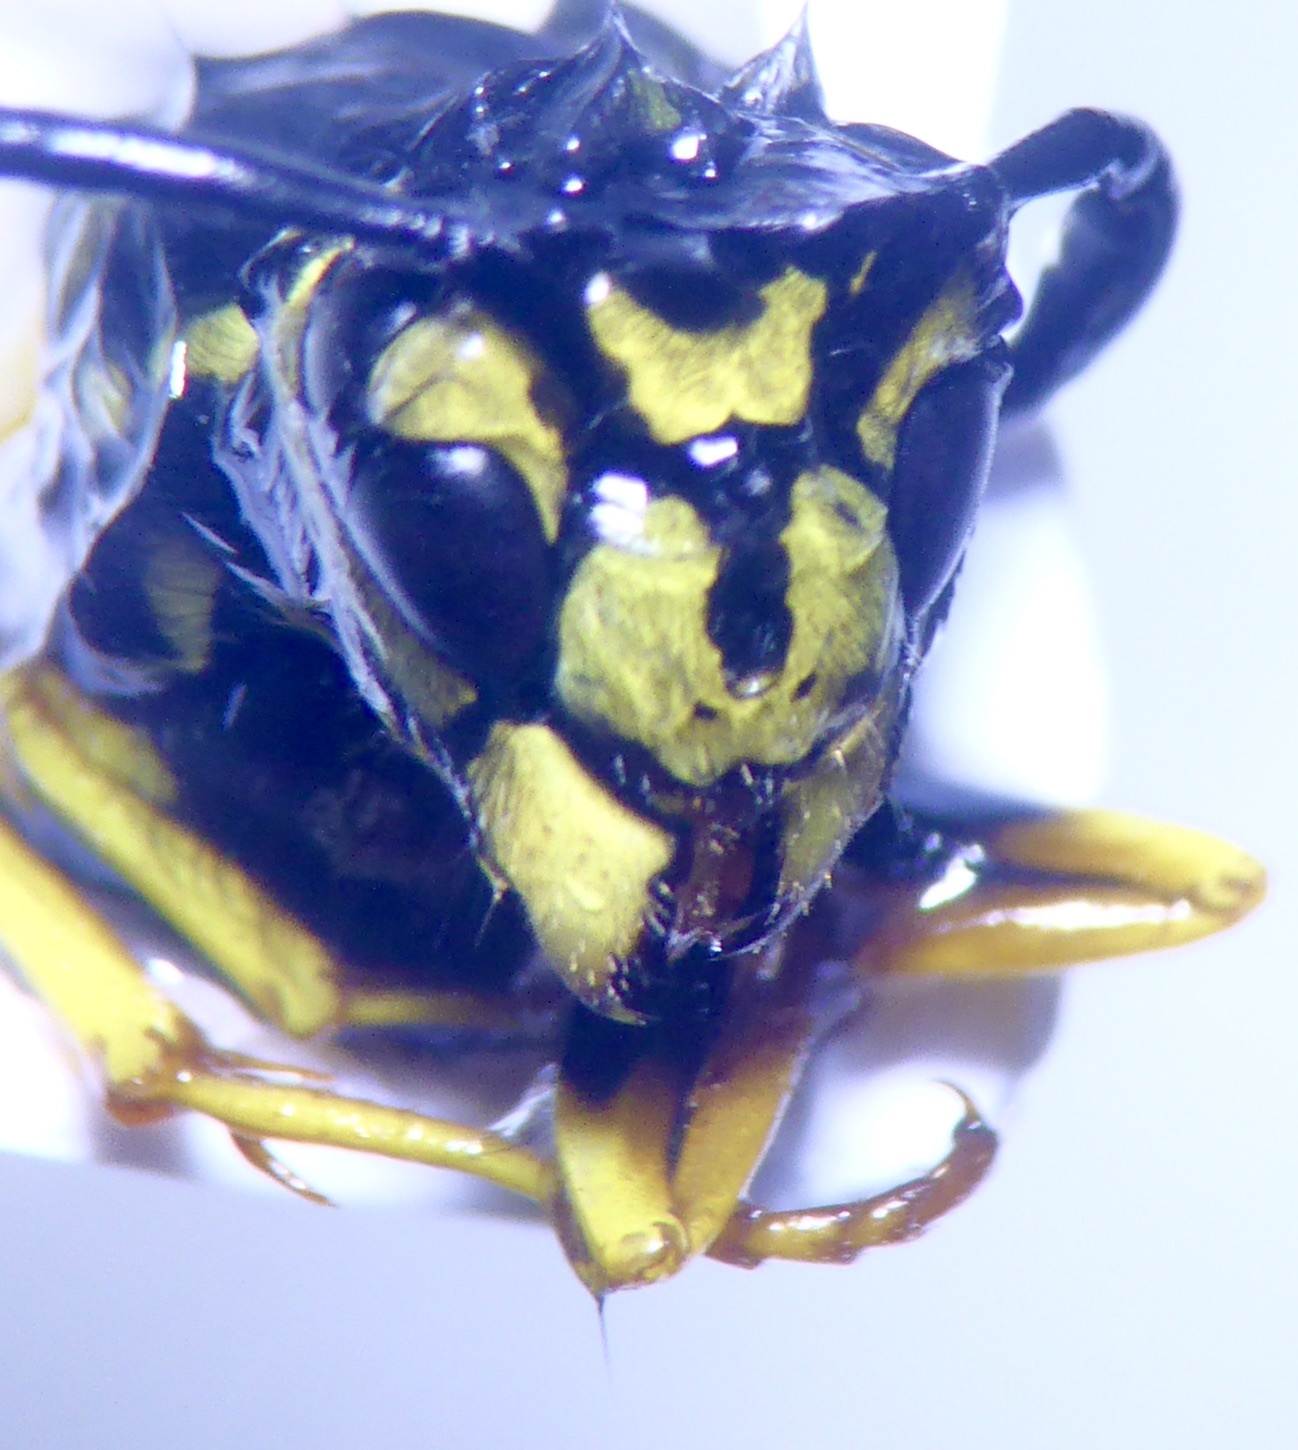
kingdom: Animalia
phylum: Arthropoda
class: Insecta
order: Hymenoptera
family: Vespidae
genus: Vespula
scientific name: Vespula germanica
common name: German wasp
